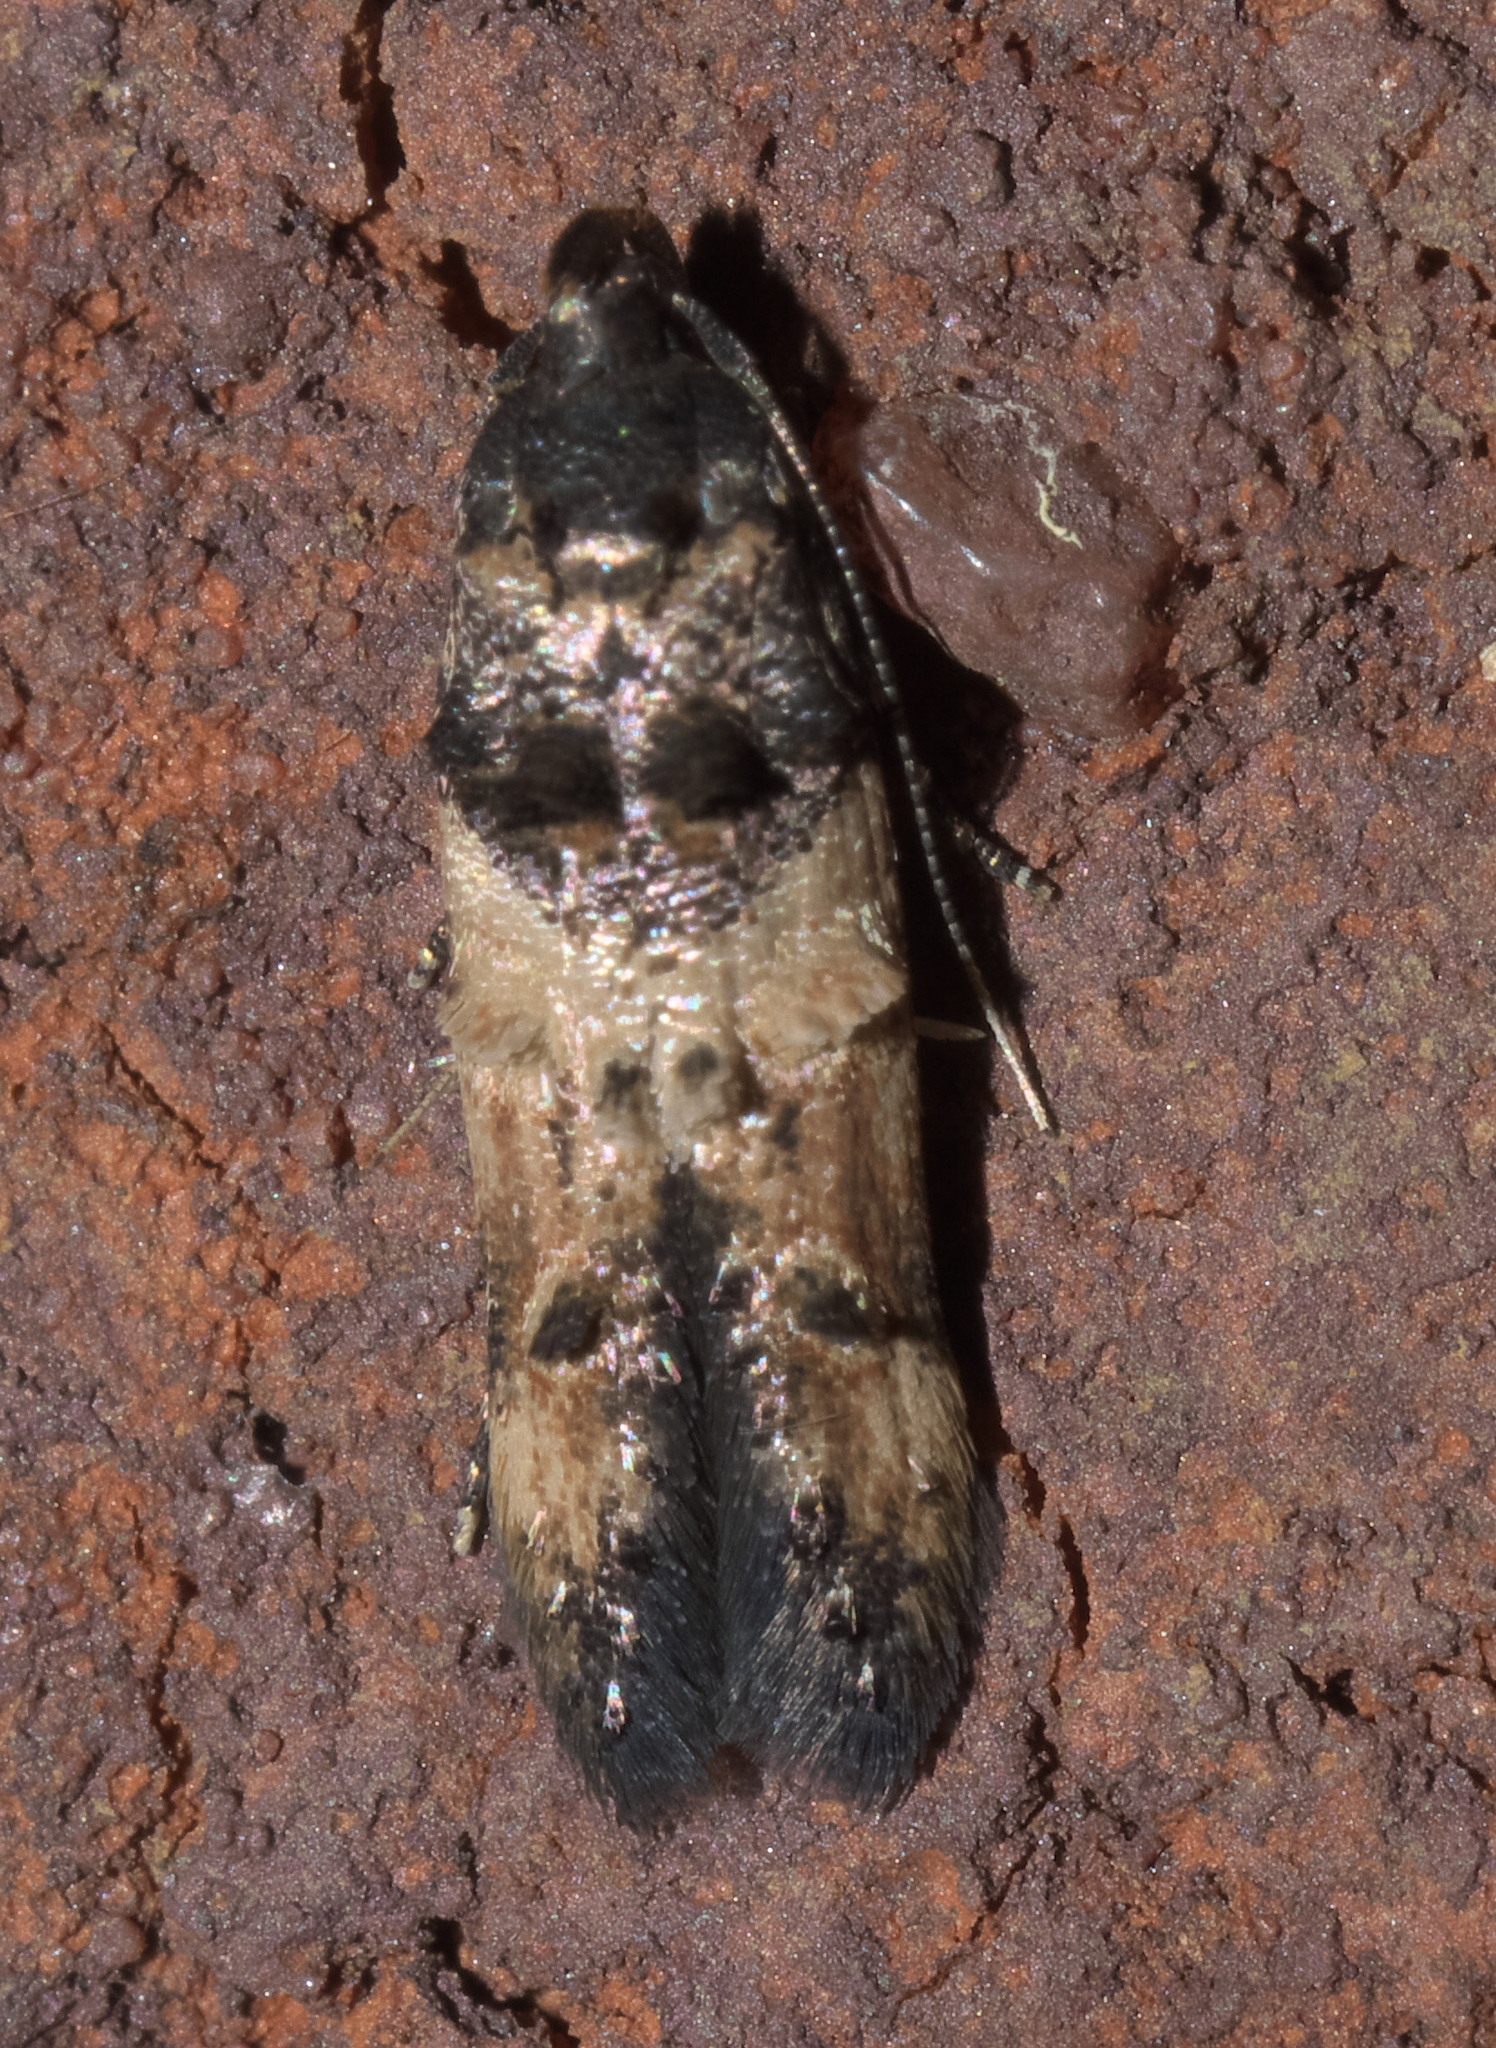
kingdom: Animalia
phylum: Arthropoda
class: Insecta
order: Lepidoptera
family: Cosmopterigidae
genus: Walshia
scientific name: Walshia miscecolorella
